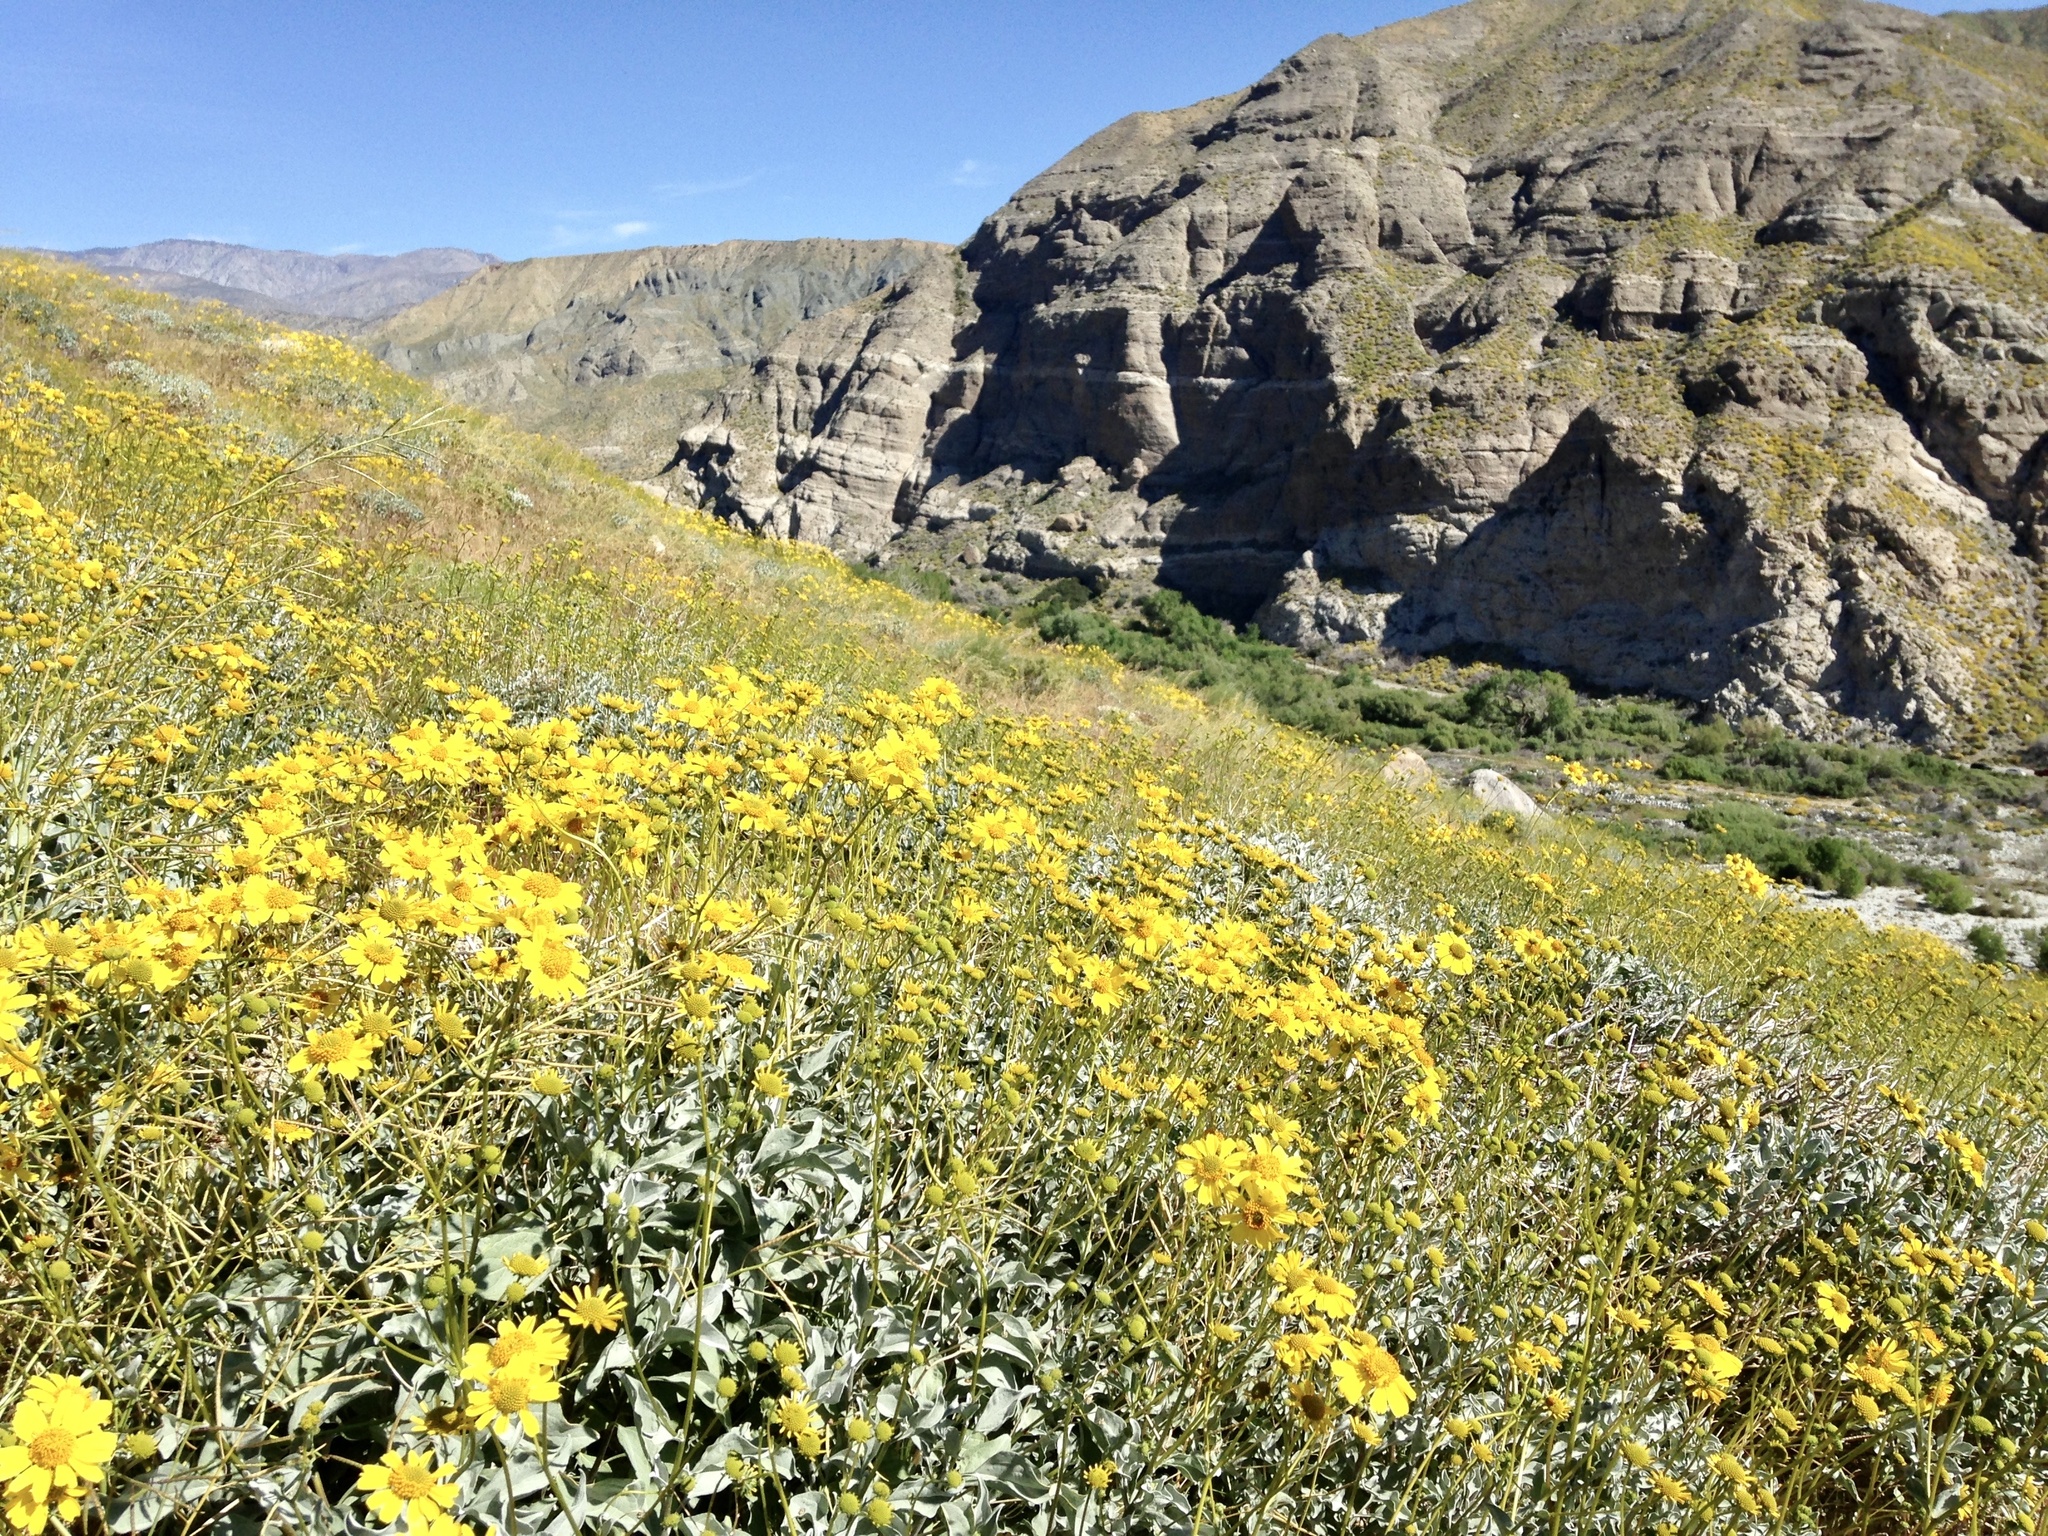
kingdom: Plantae
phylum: Tracheophyta
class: Magnoliopsida
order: Asterales
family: Asteraceae
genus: Encelia
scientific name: Encelia farinosa
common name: Brittlebush
